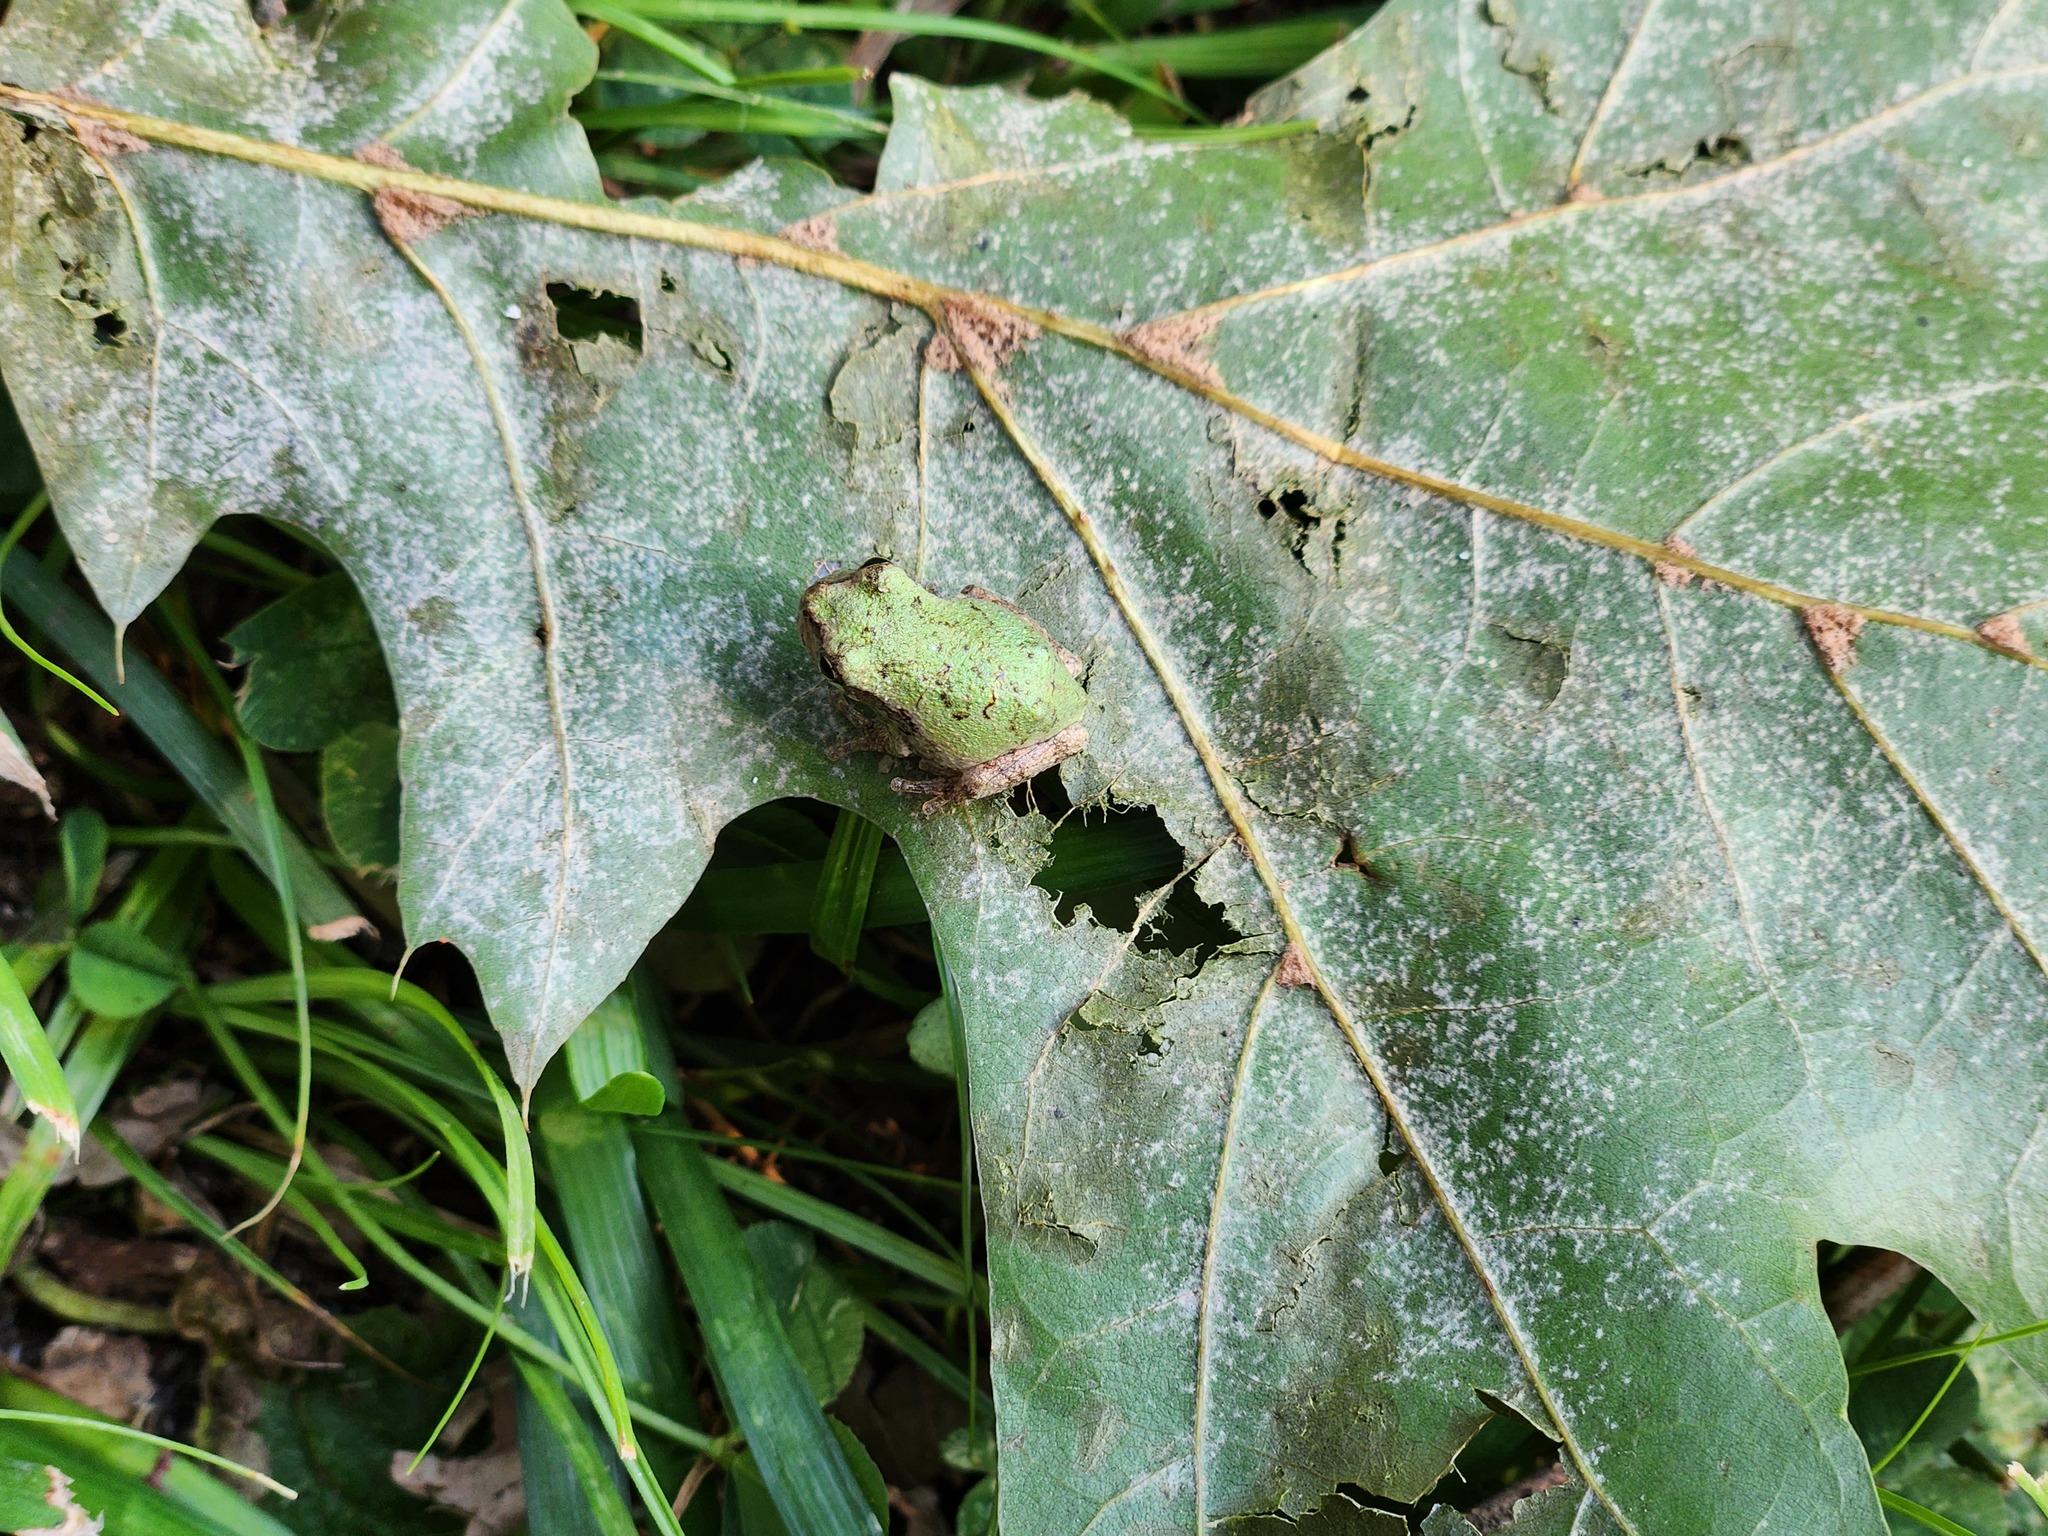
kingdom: Animalia
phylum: Chordata
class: Amphibia
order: Anura
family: Hylidae
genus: Dryophytes
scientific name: Dryophytes chrysoscelis
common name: Cope's gray treefrog
